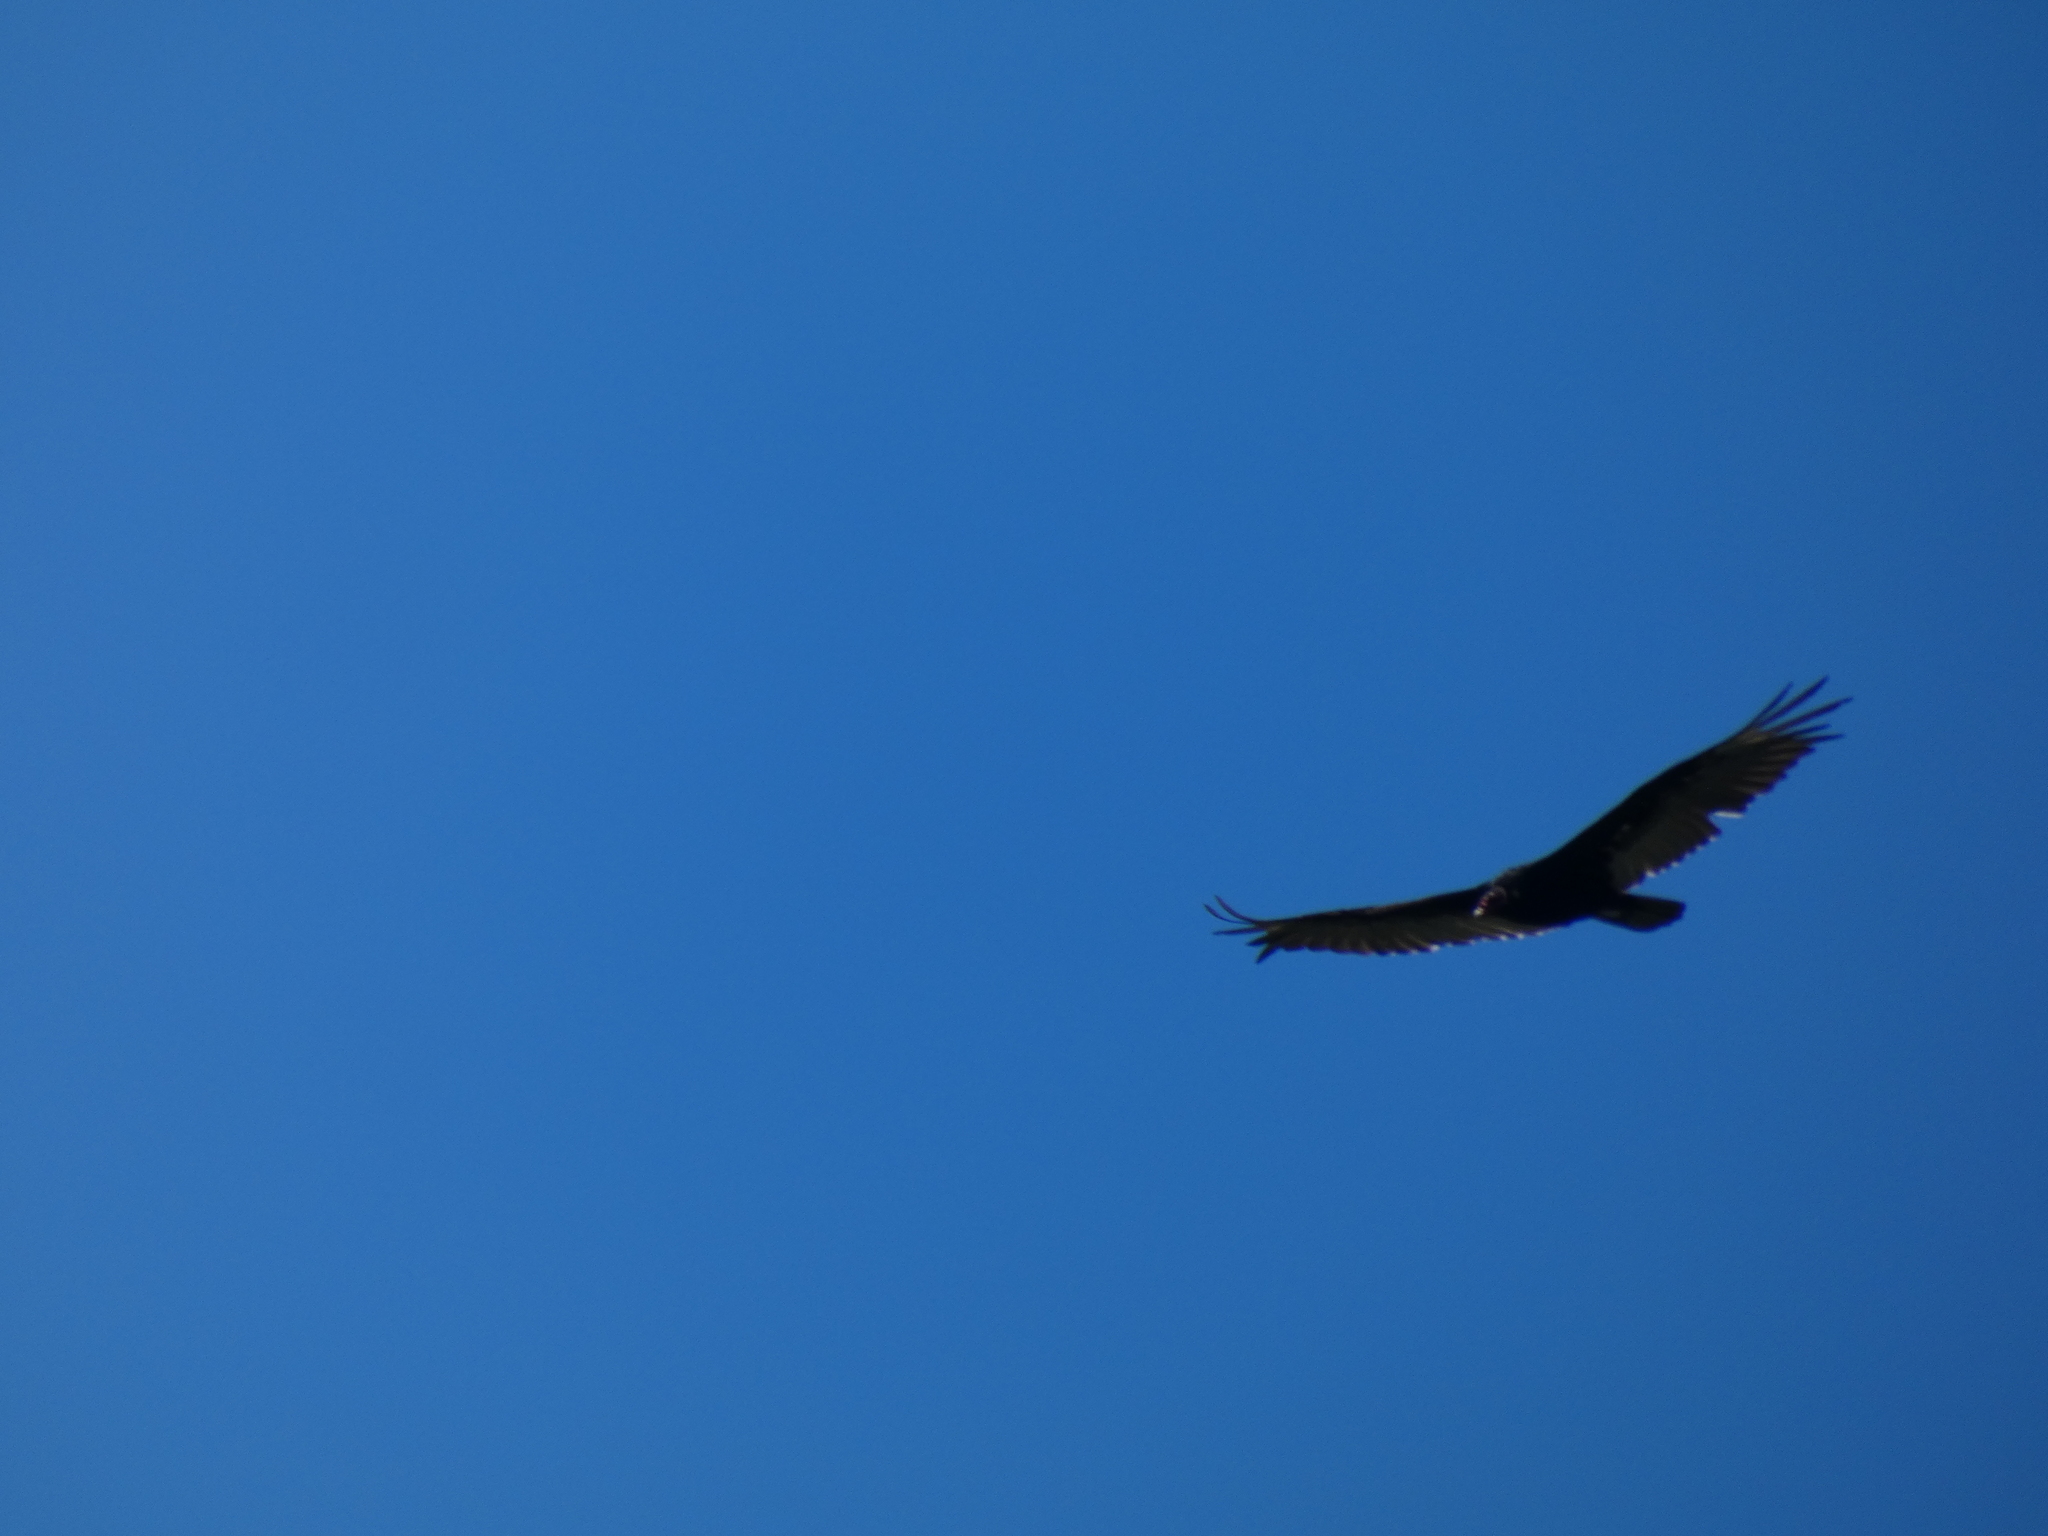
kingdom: Animalia
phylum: Chordata
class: Aves
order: Accipitriformes
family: Cathartidae
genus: Cathartes
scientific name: Cathartes aura
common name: Turkey vulture
